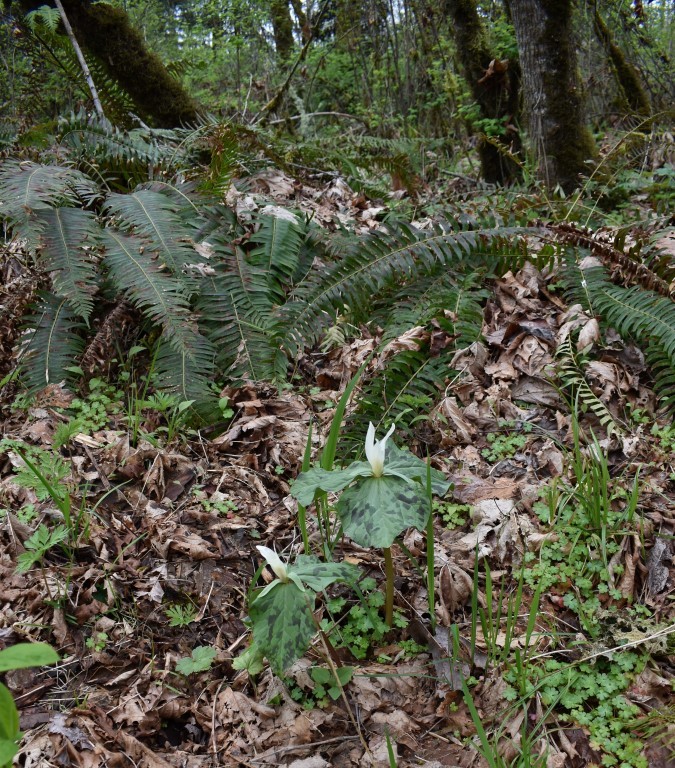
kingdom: Plantae
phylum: Tracheophyta
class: Liliopsida
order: Liliales
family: Melanthiaceae
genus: Trillium
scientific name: Trillium albidum
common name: Freeman's trillium
